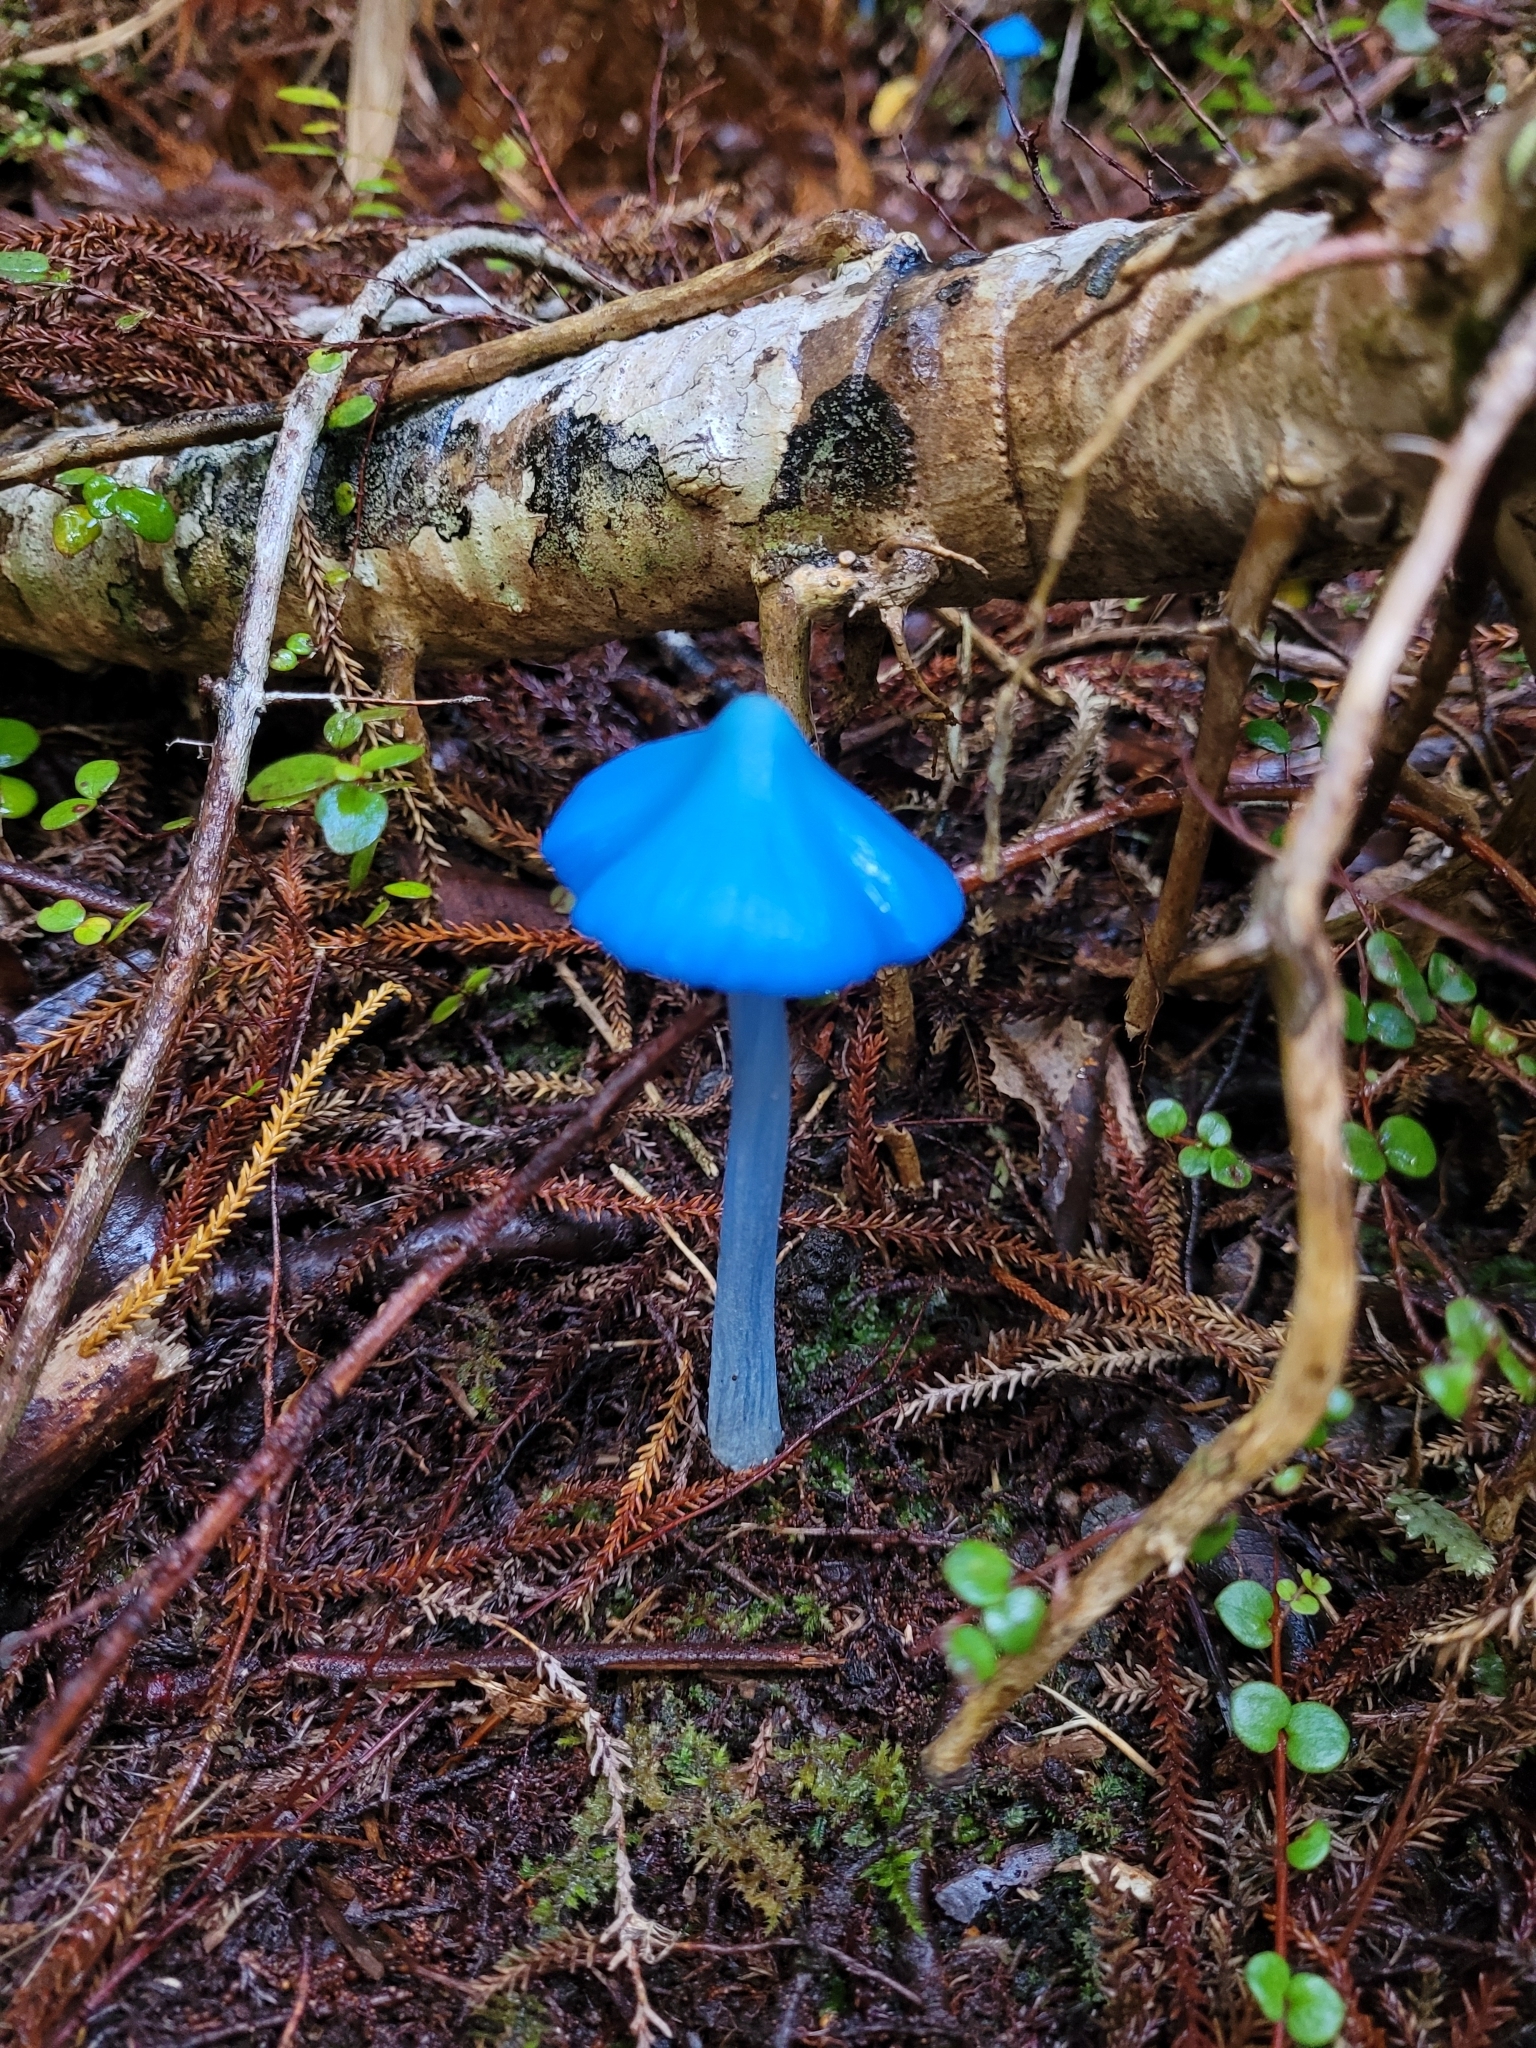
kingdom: Fungi
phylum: Basidiomycota
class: Agaricomycetes
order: Agaricales
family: Entolomataceae
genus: Entoloma
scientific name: Entoloma hochstetteri
